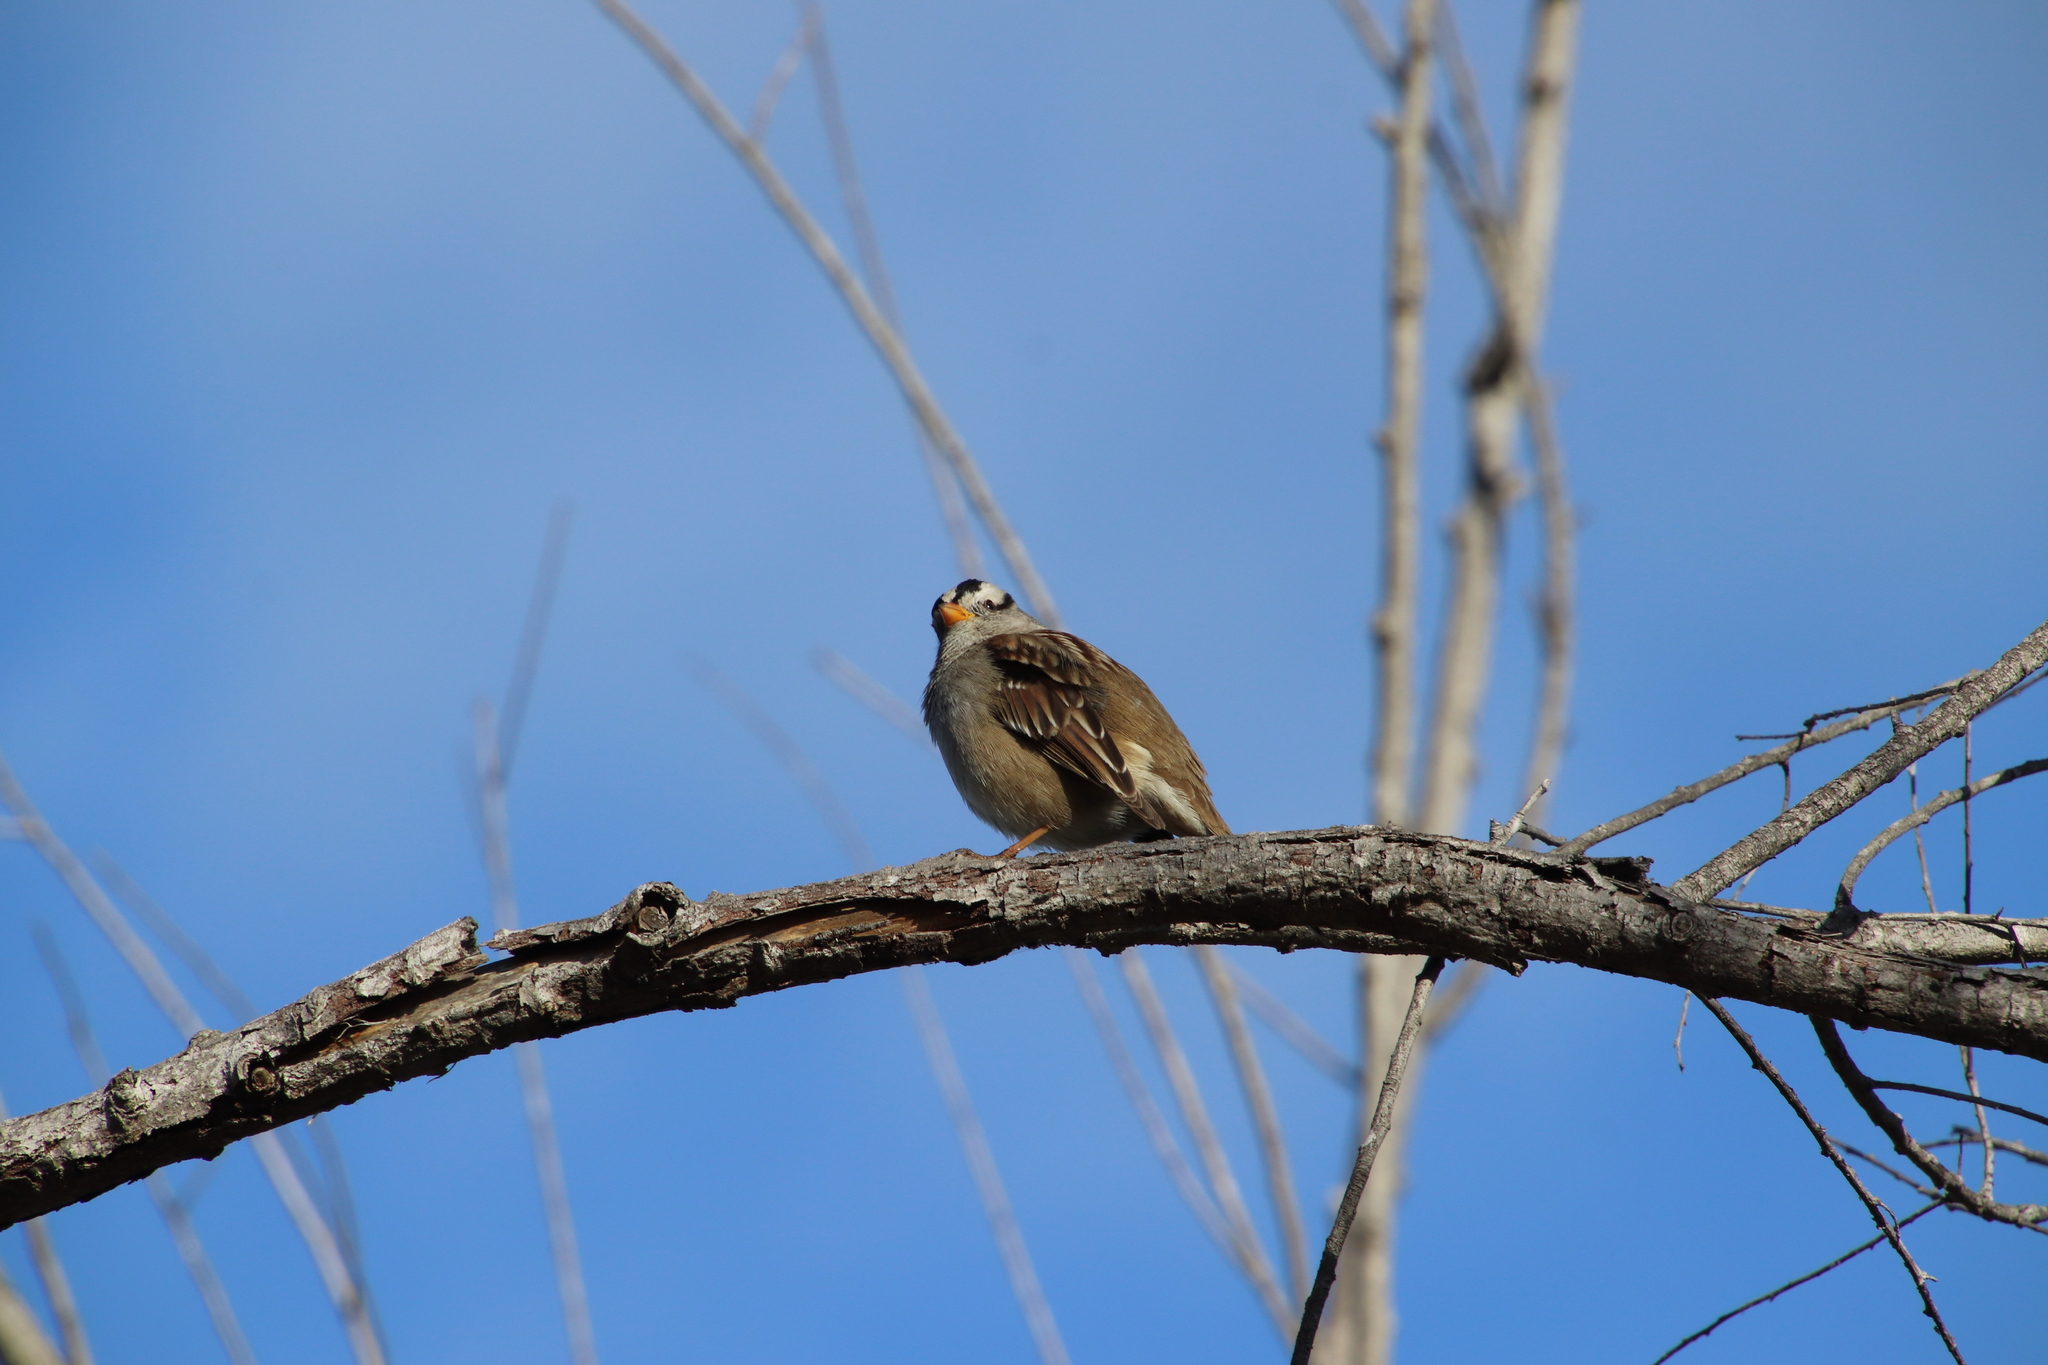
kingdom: Animalia
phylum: Chordata
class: Aves
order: Passeriformes
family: Passerellidae
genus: Zonotrichia
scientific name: Zonotrichia leucophrys
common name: White-crowned sparrow
